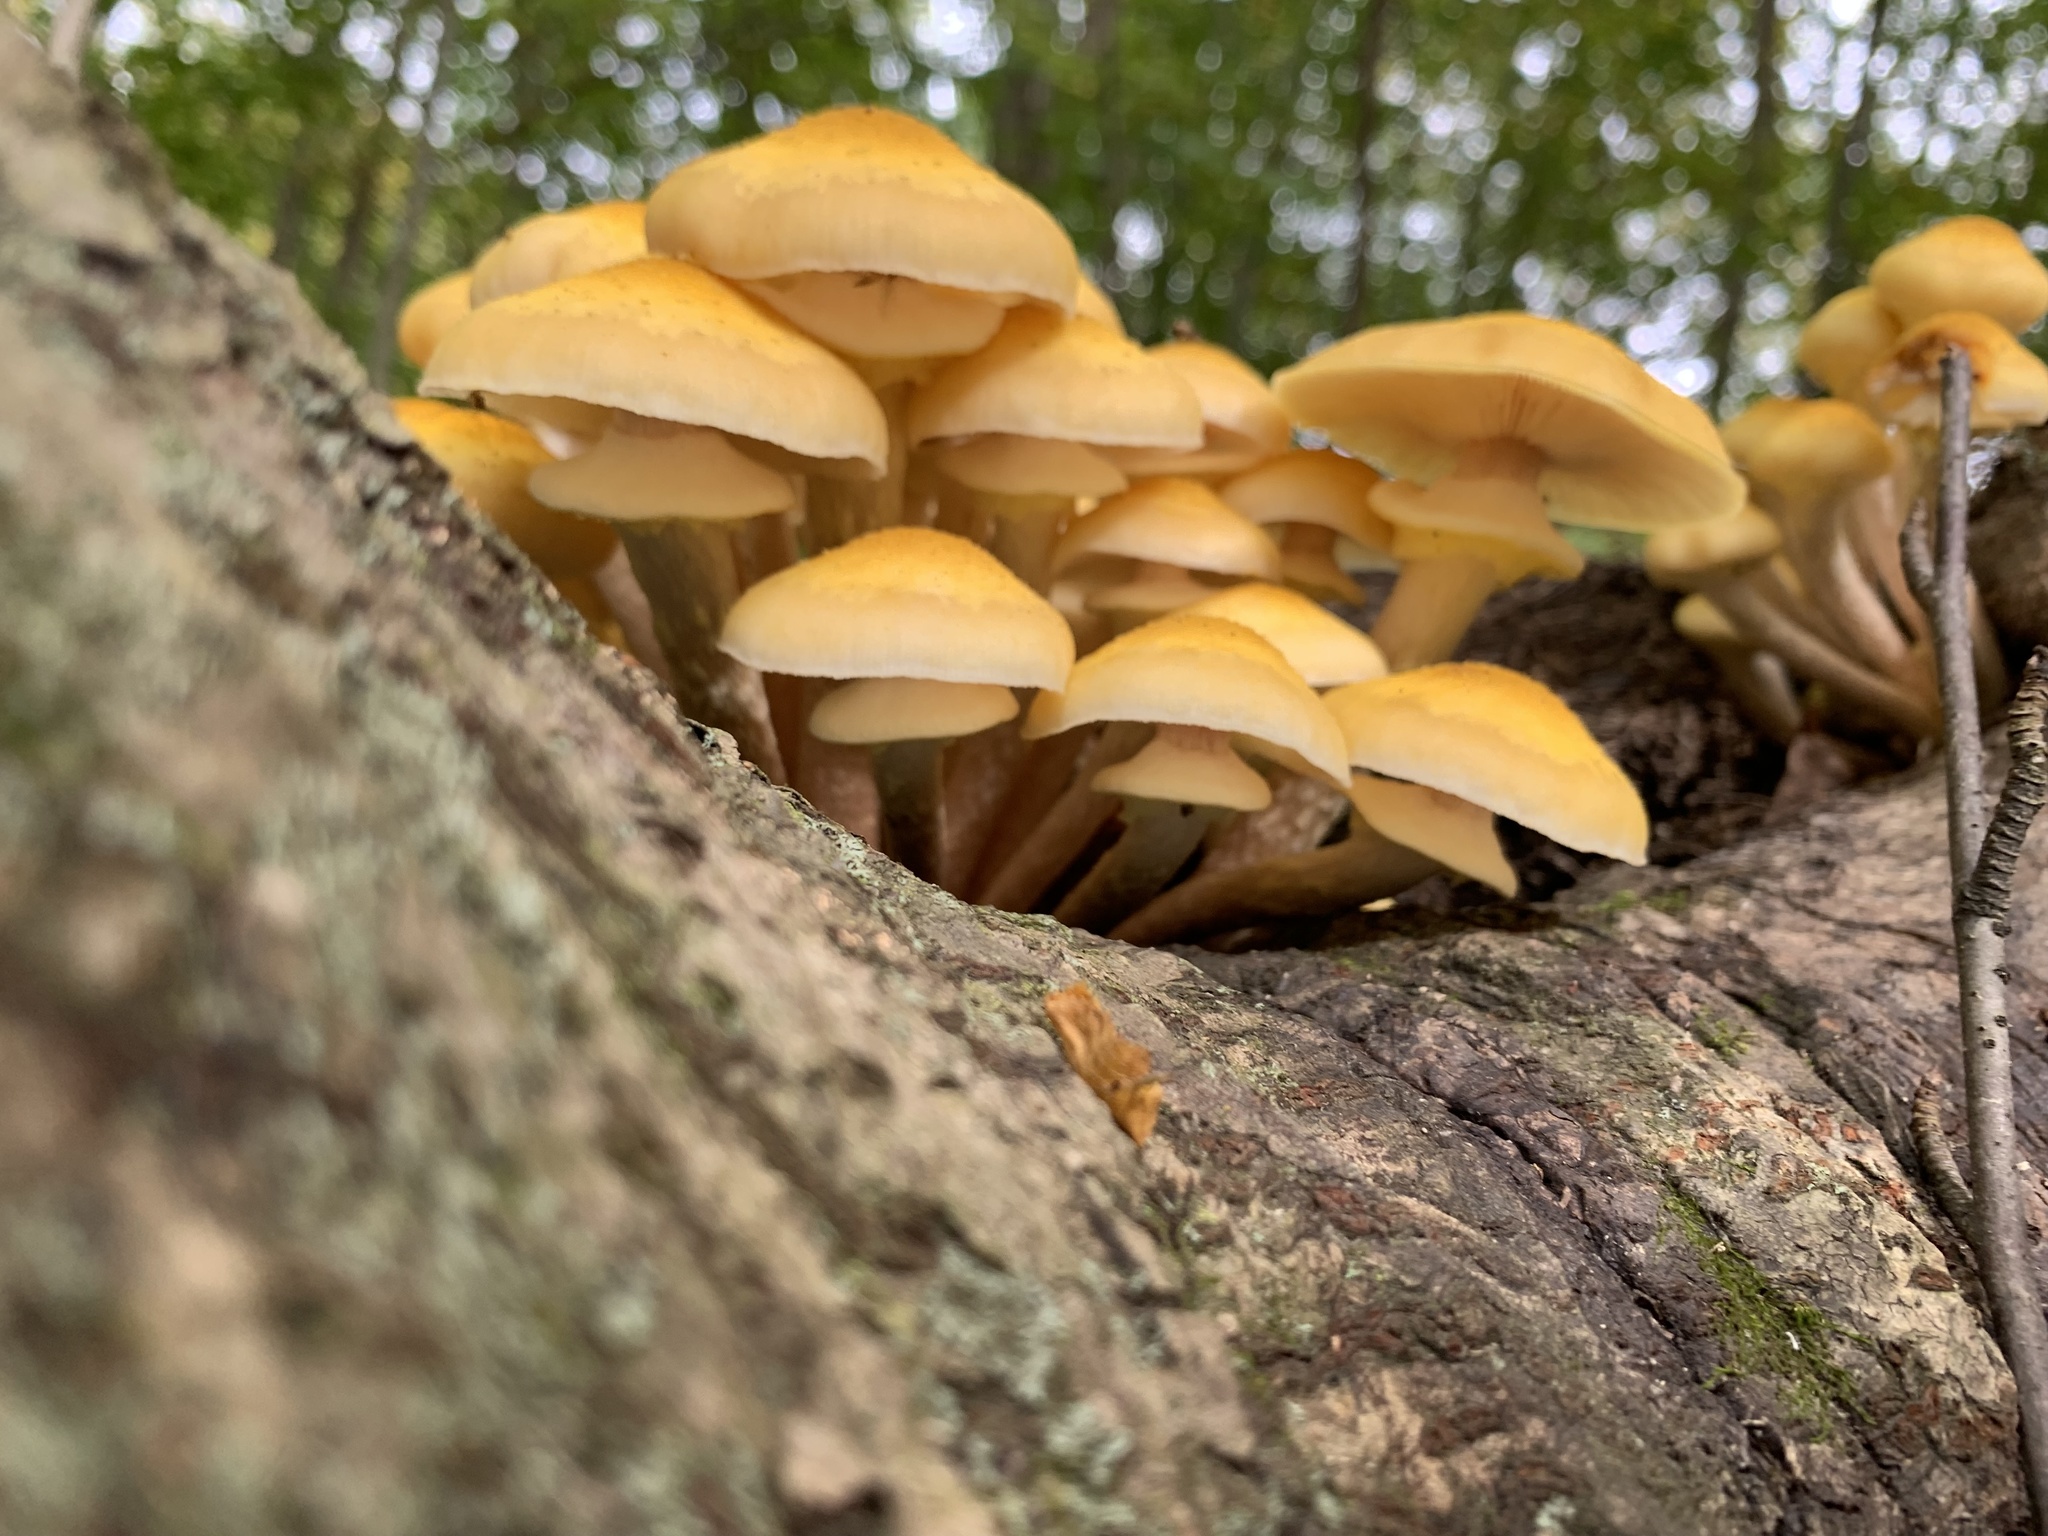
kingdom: Fungi
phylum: Basidiomycota
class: Agaricomycetes
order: Agaricales
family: Physalacriaceae
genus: Armillaria
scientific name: Armillaria mellea
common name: Honey fungus
